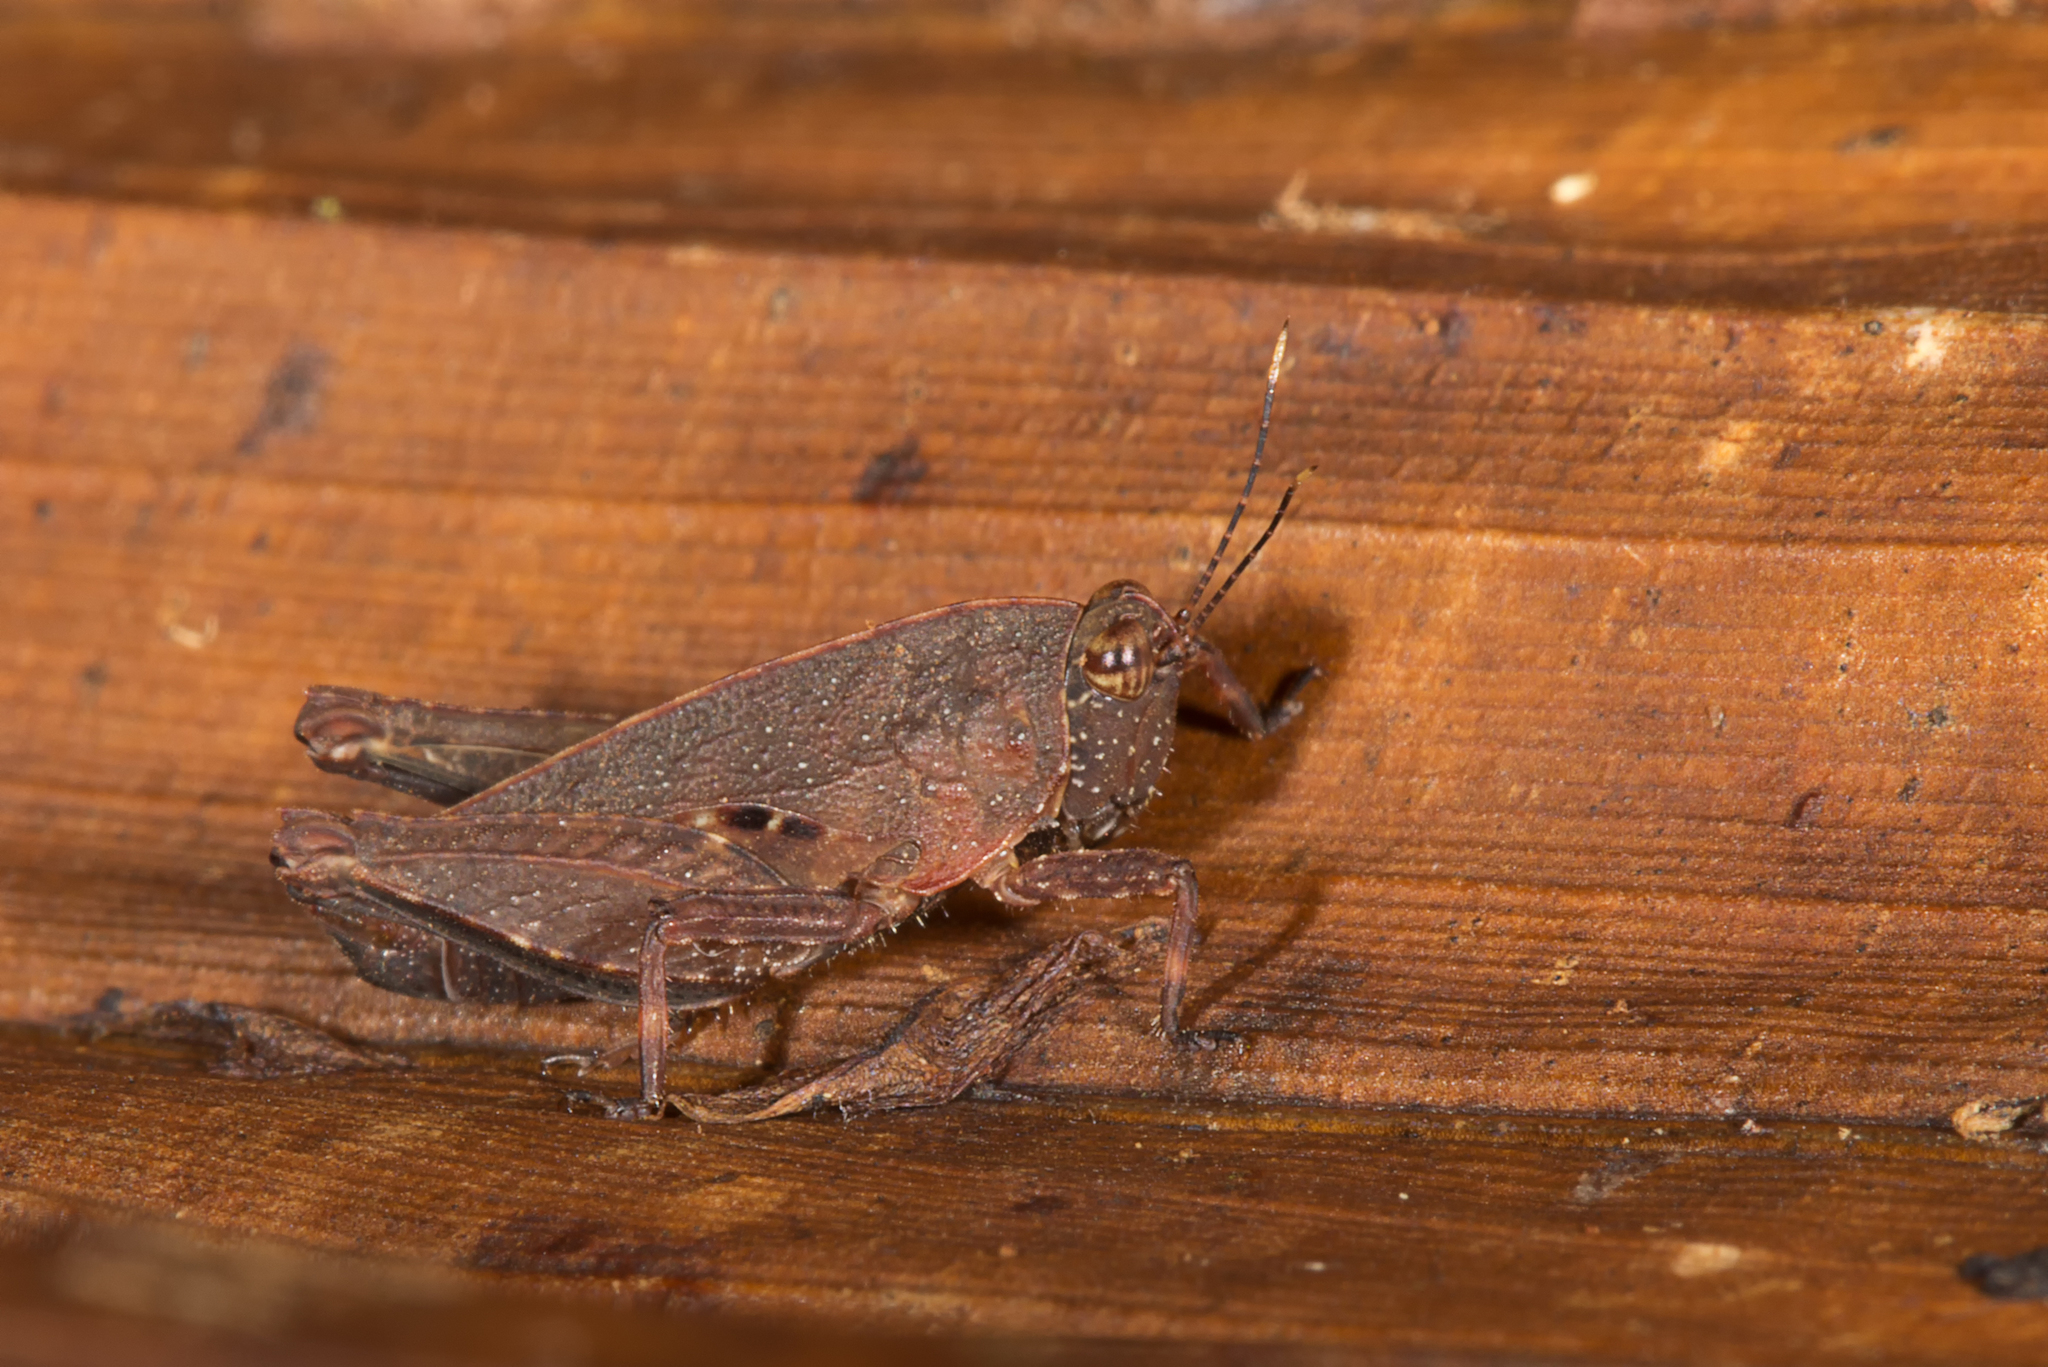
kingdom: Animalia
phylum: Arthropoda
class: Insecta
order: Orthoptera
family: Tetrigidae
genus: Coptottigia
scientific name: Coptottigia cristata
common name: Seychelles crested groundhopper
